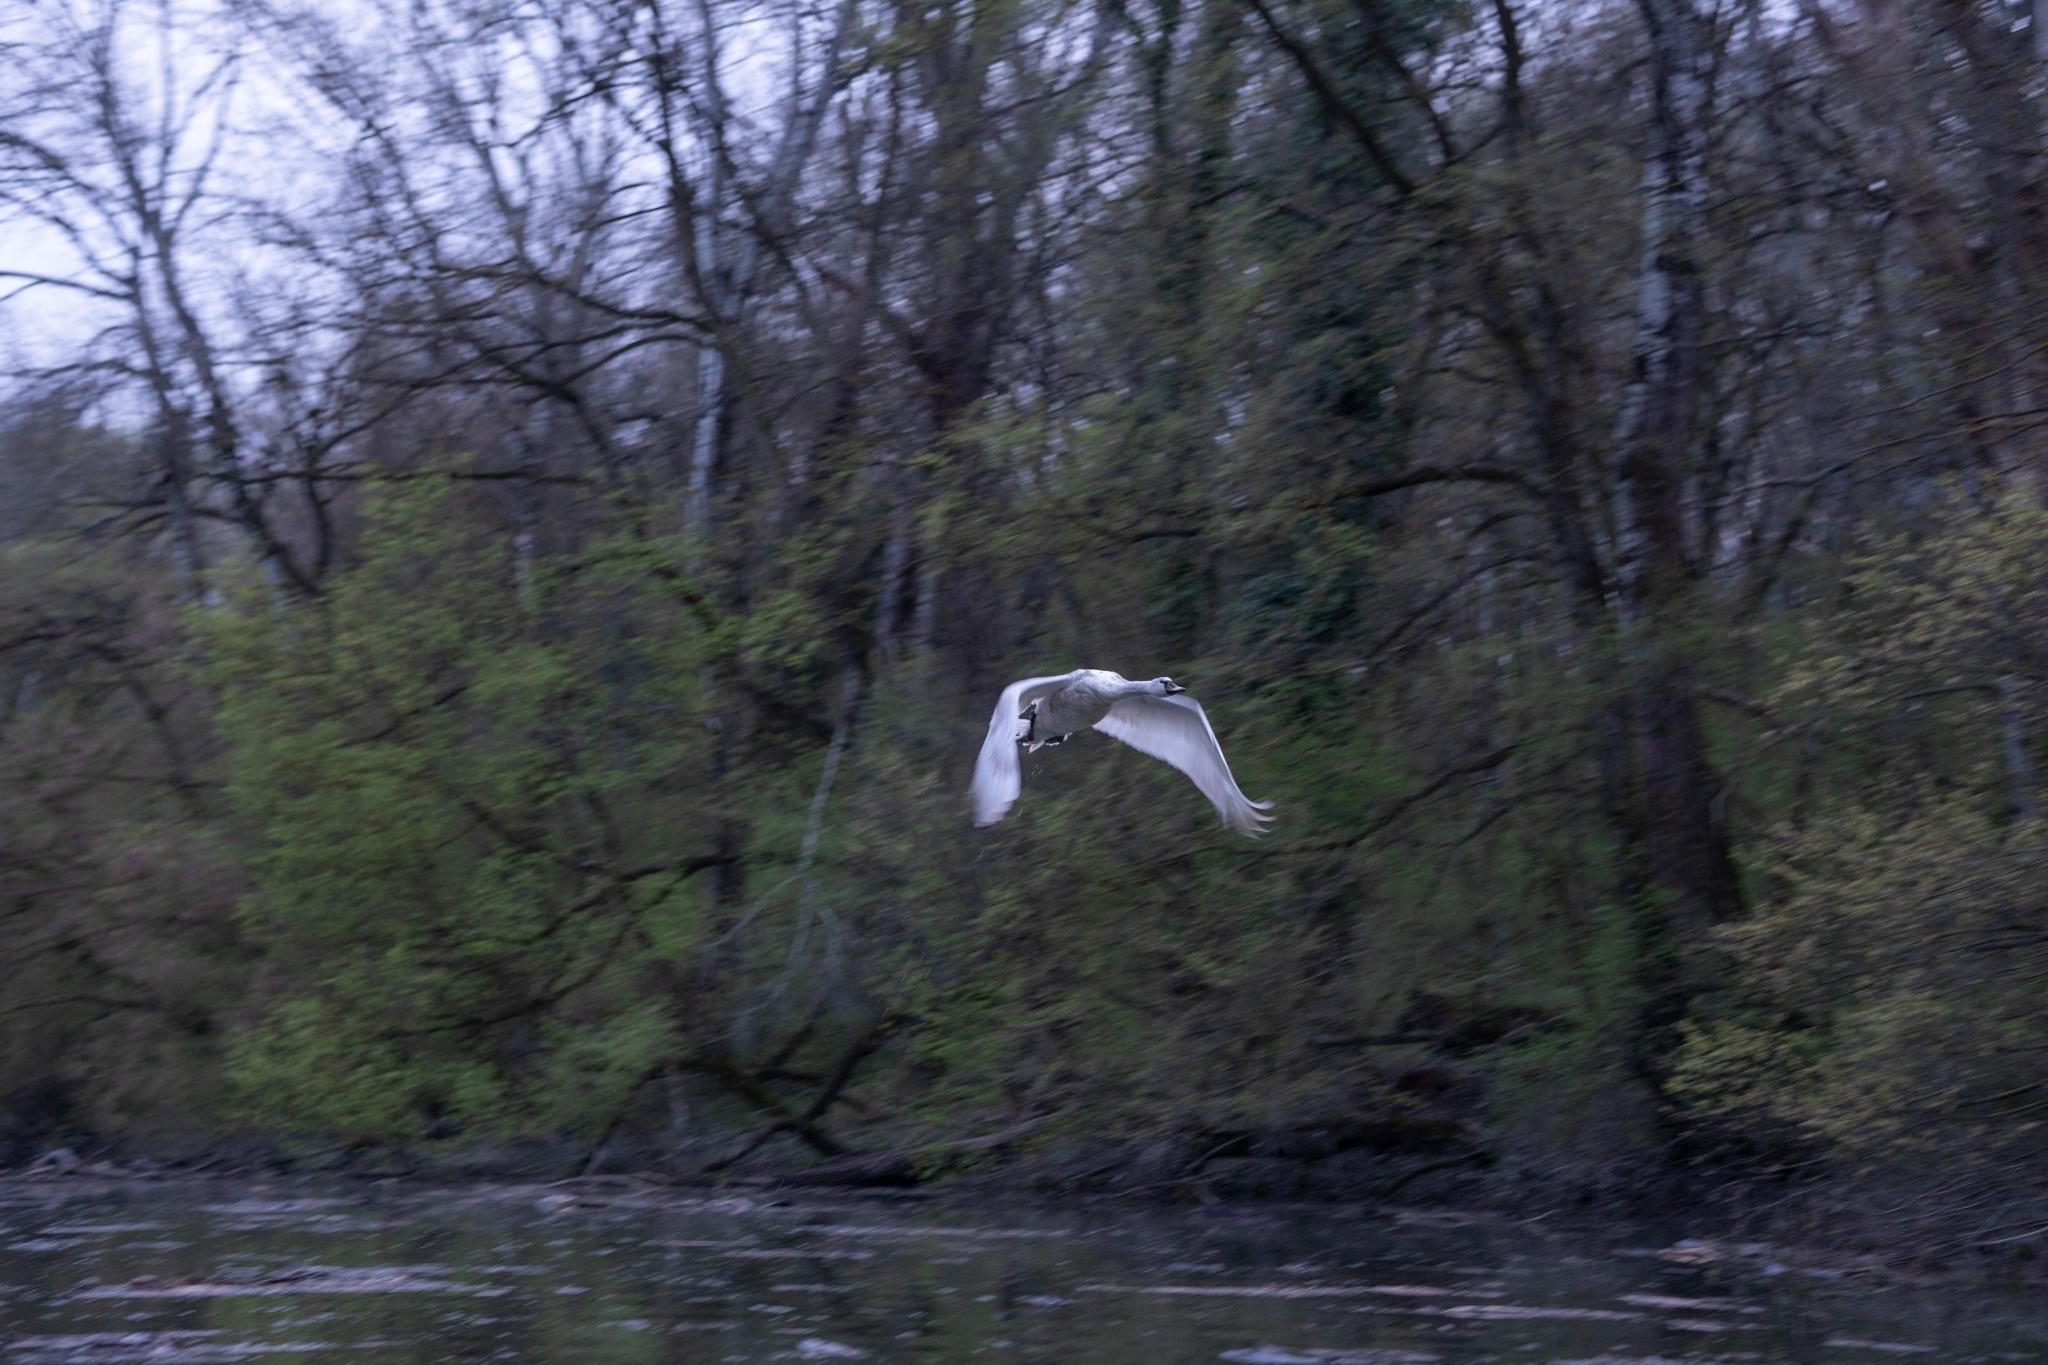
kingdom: Animalia
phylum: Chordata
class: Aves
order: Anseriformes
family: Anatidae
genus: Cygnus
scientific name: Cygnus olor
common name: Mute swan
